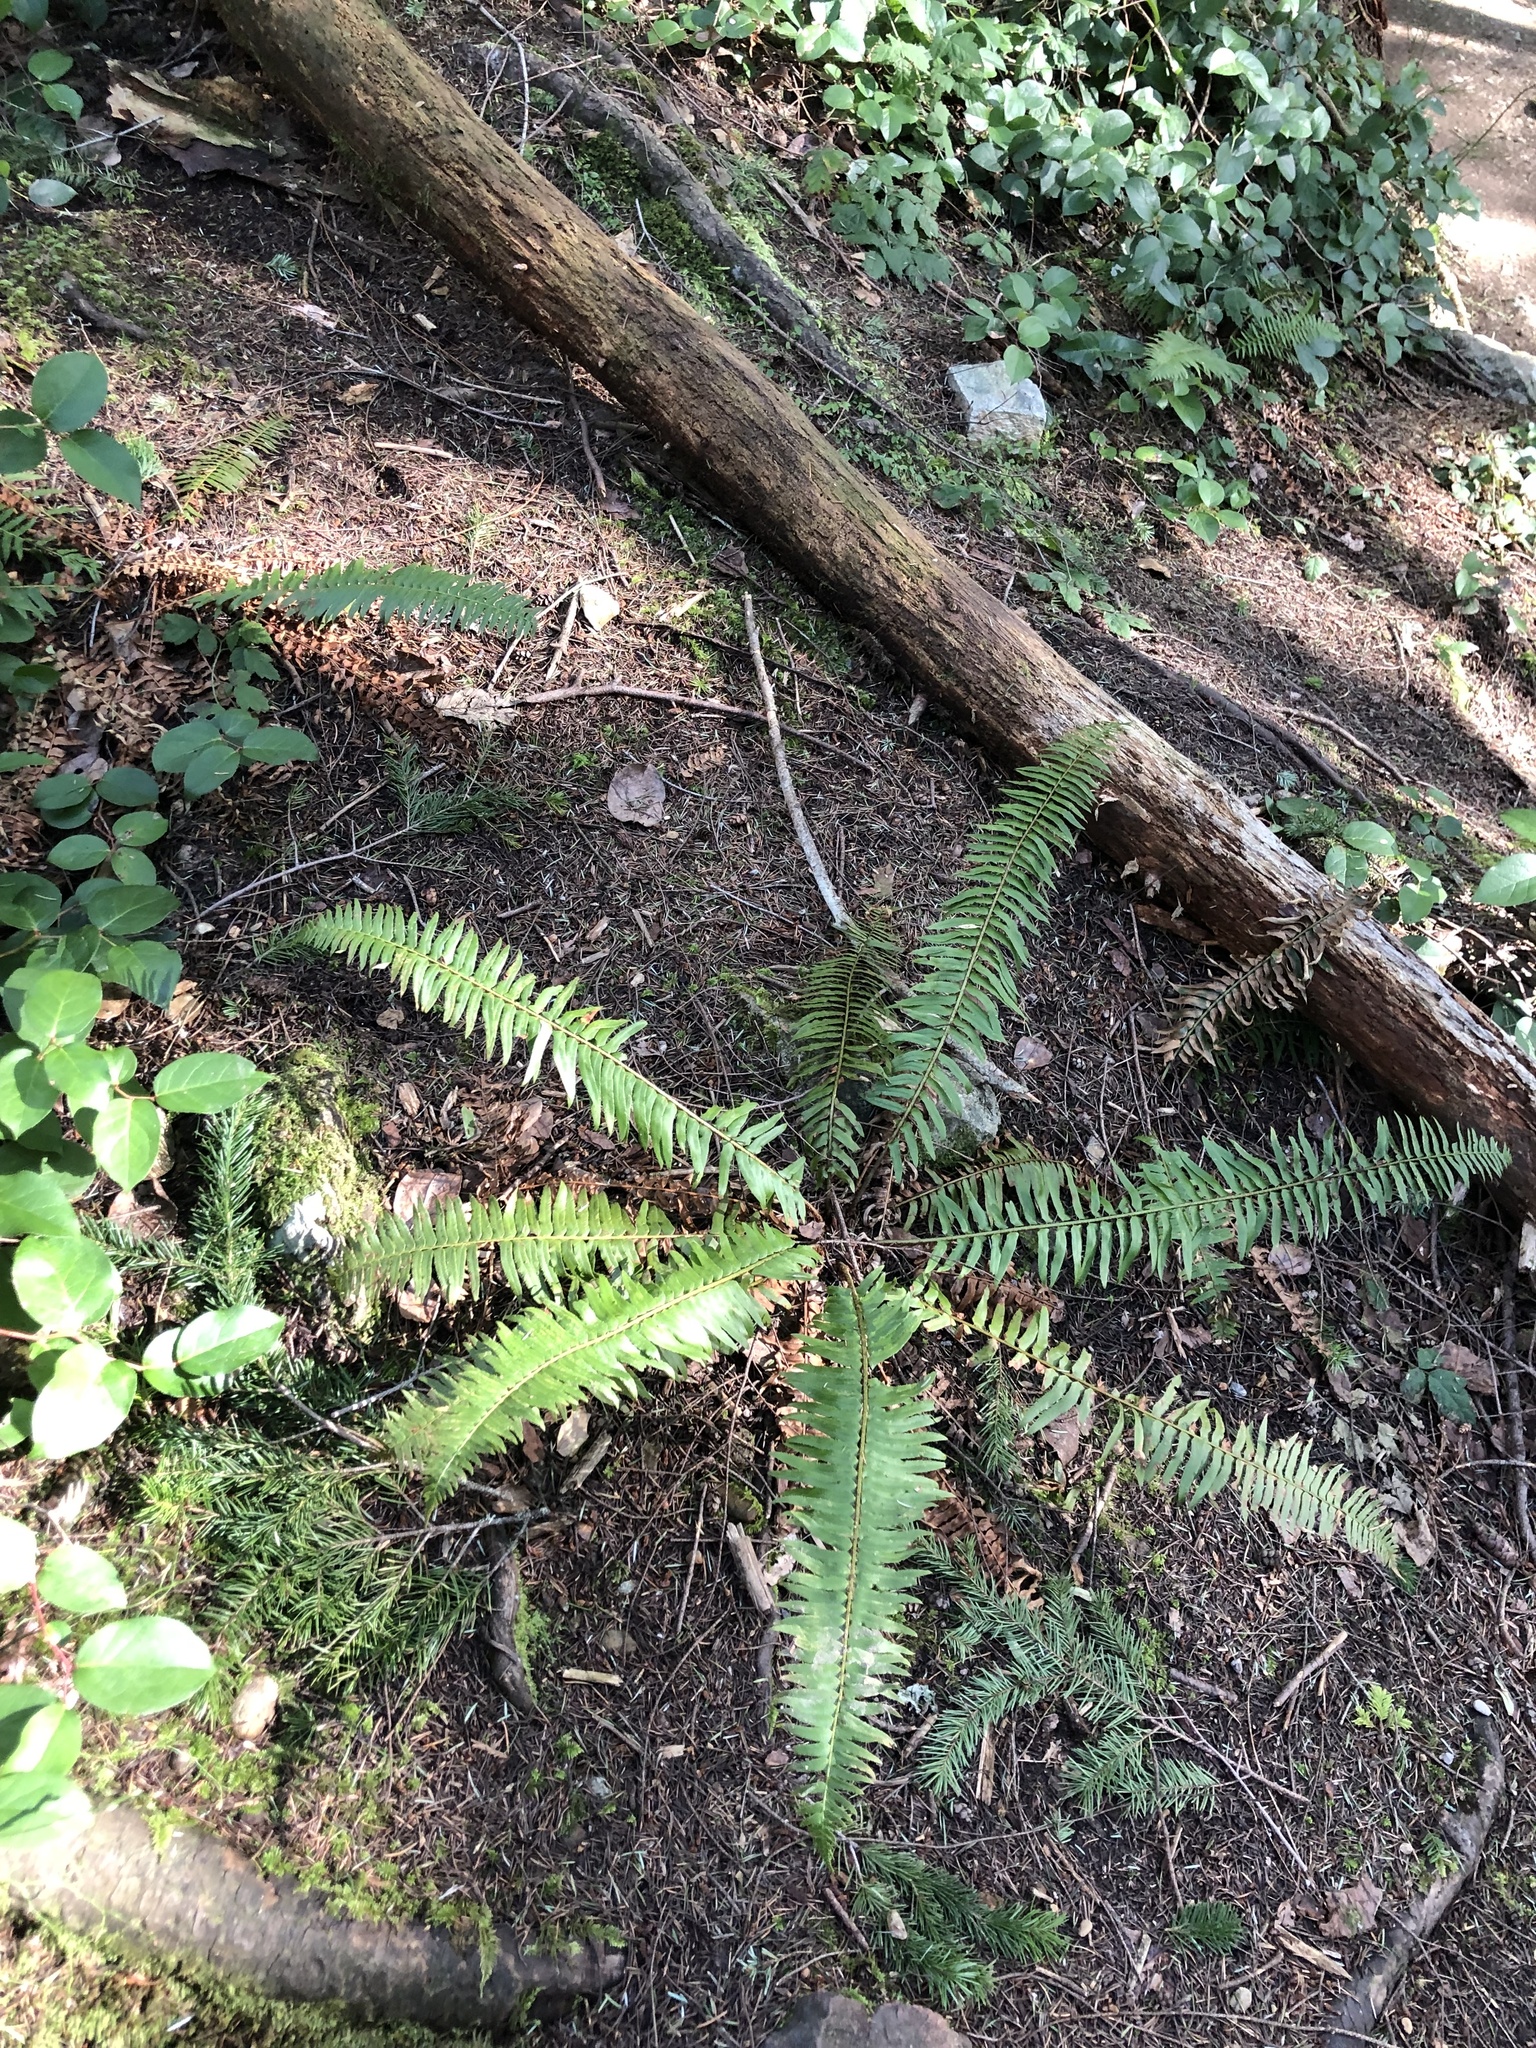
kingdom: Plantae
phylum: Tracheophyta
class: Polypodiopsida
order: Polypodiales
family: Dryopteridaceae
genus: Polystichum
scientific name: Polystichum munitum
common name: Western sword-fern
